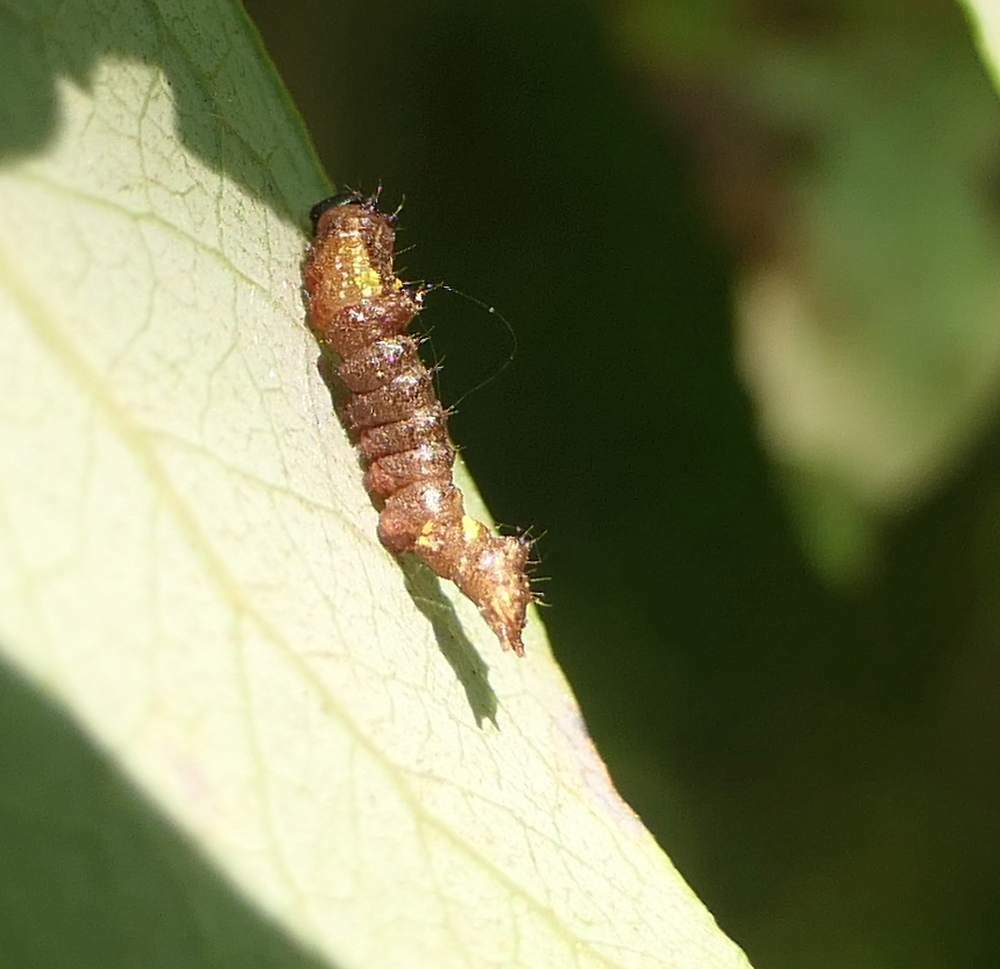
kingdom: Animalia
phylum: Arthropoda
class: Insecta
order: Lepidoptera
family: Notodontidae
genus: Schizura
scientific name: Schizura
